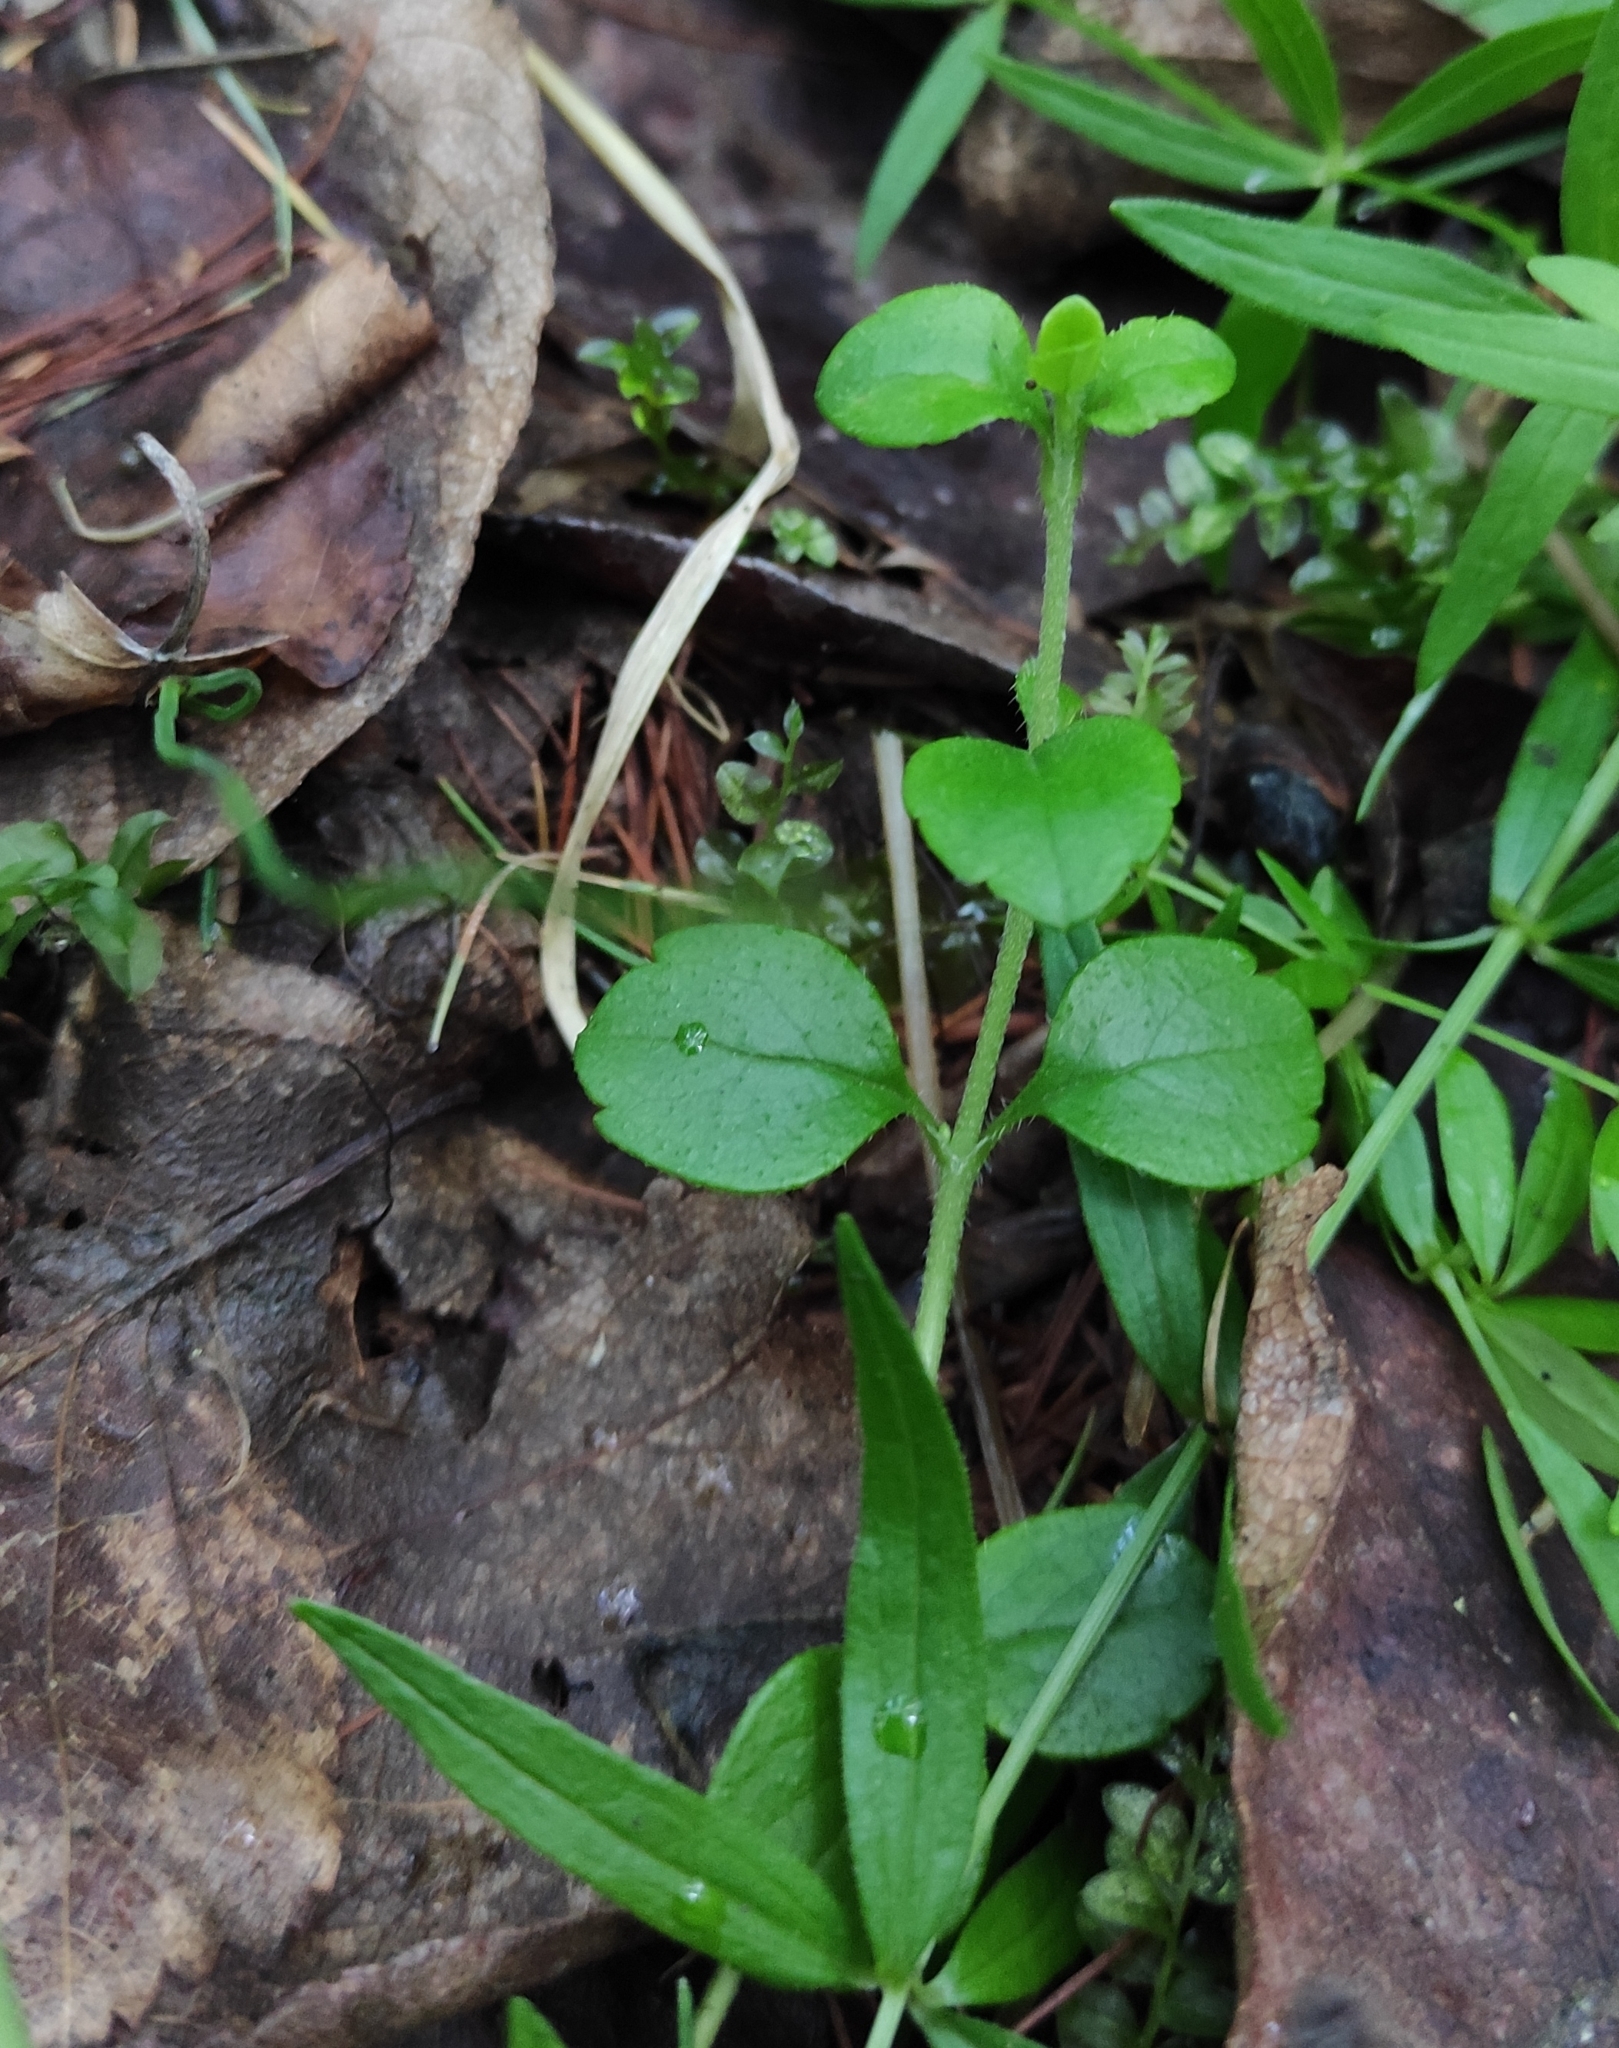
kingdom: Plantae
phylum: Tracheophyta
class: Magnoliopsida
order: Dipsacales
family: Caprifoliaceae
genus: Linnaea
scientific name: Linnaea borealis
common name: Twinflower
